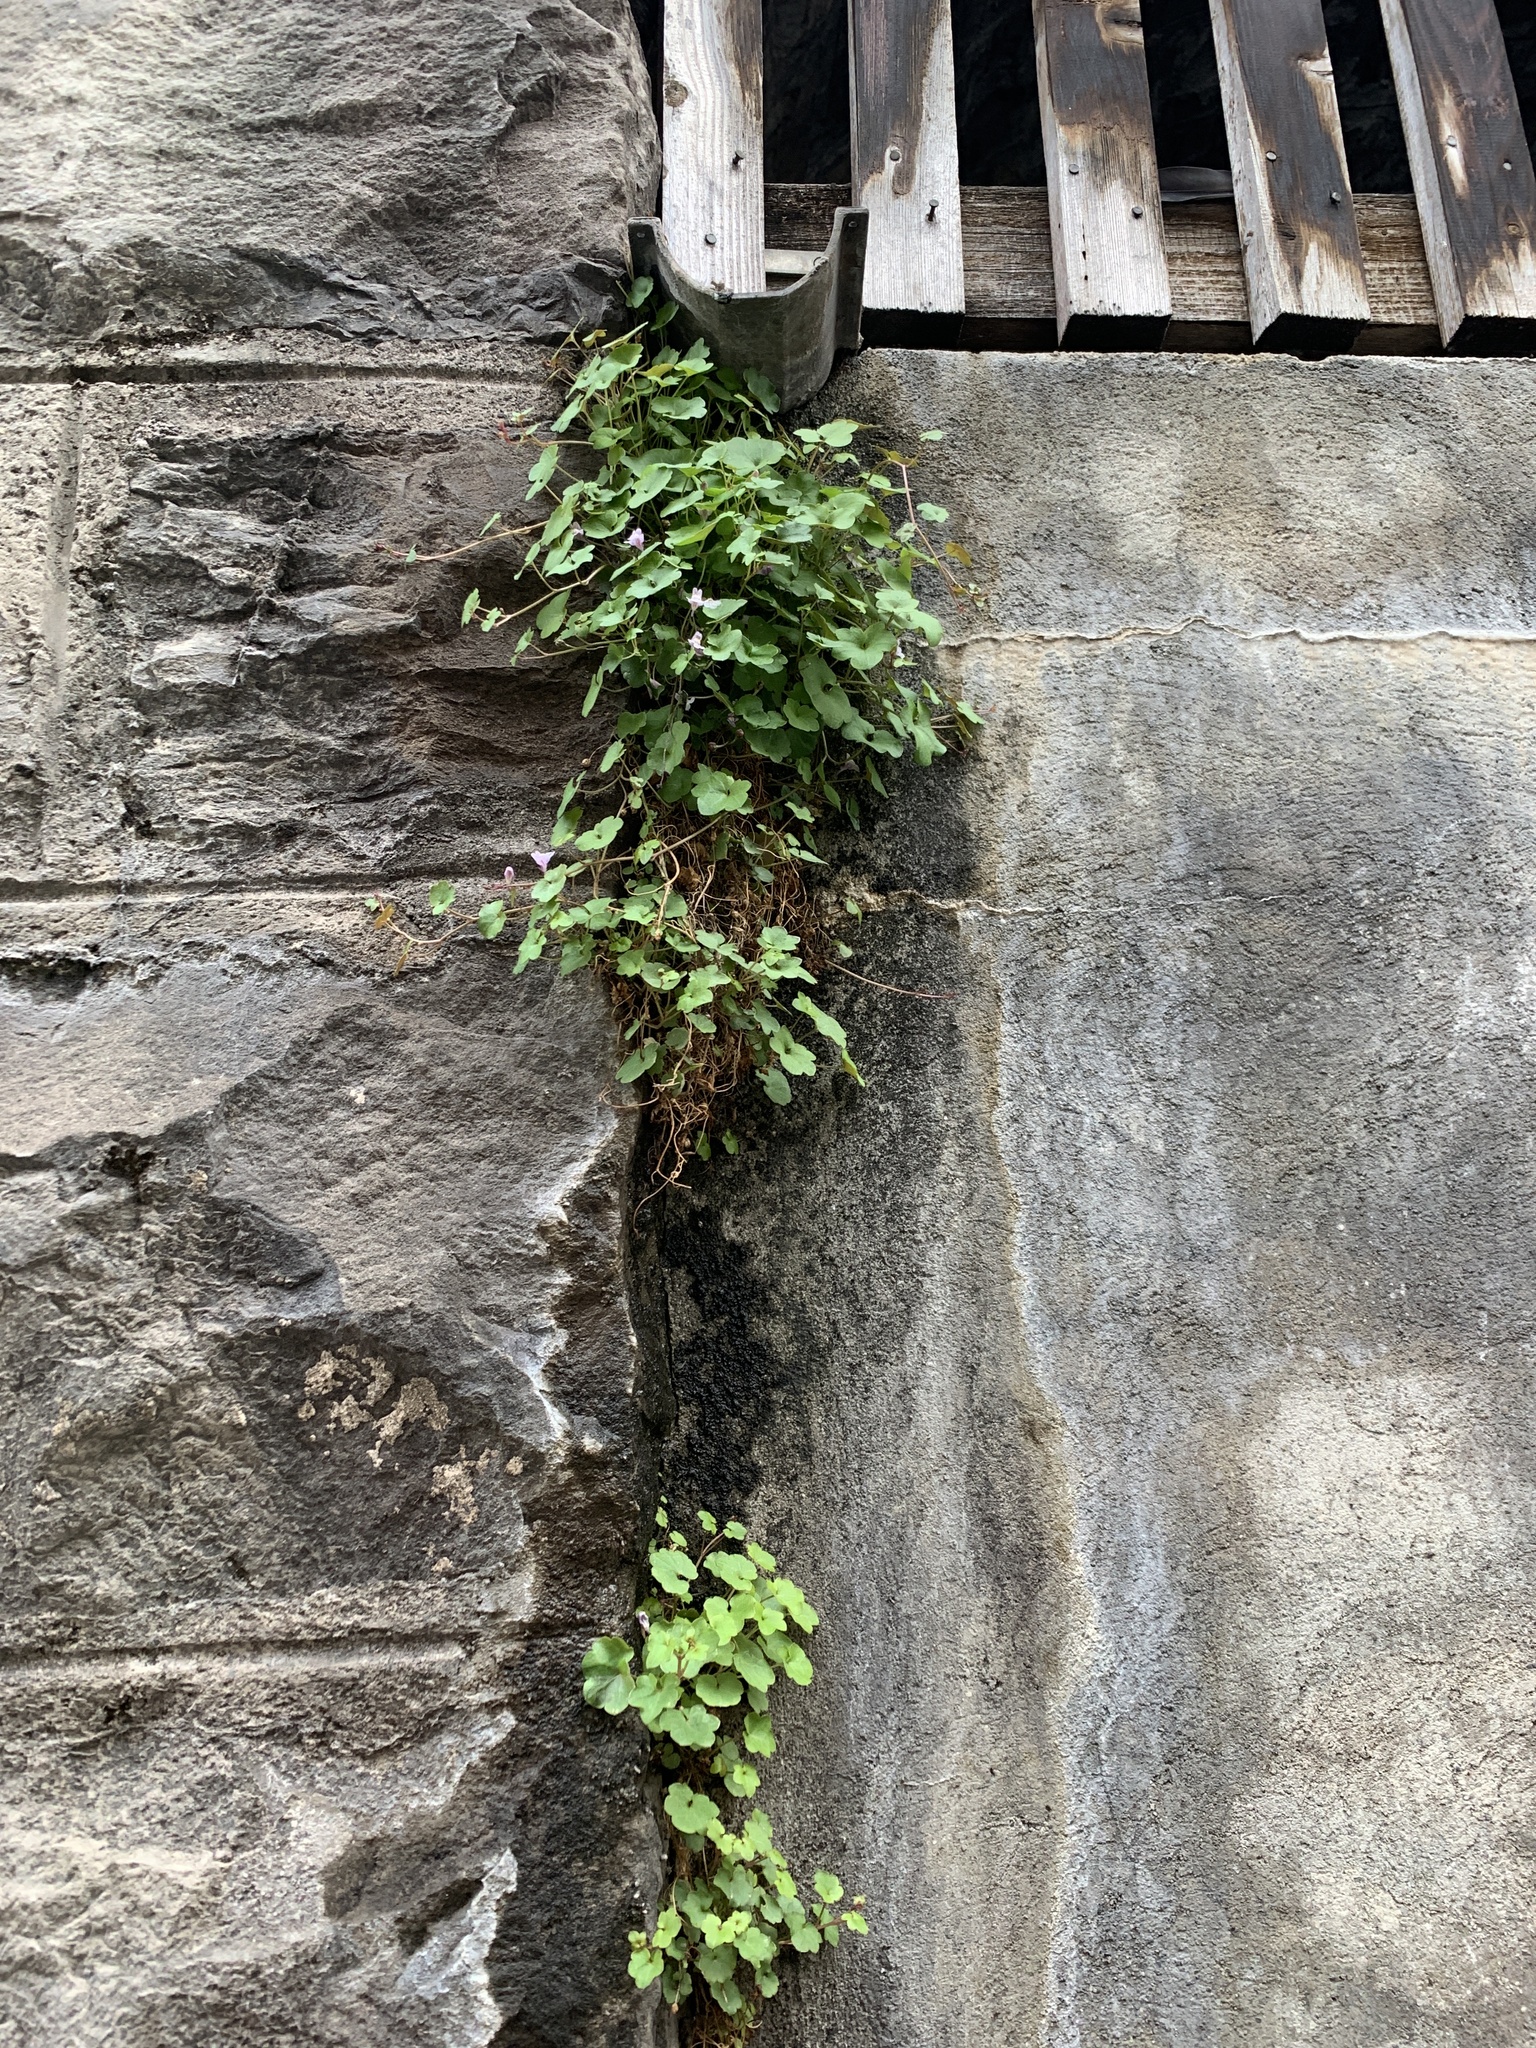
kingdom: Plantae
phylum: Tracheophyta
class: Magnoliopsida
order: Lamiales
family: Plantaginaceae
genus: Cymbalaria
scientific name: Cymbalaria muralis
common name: Ivy-leaved toadflax
